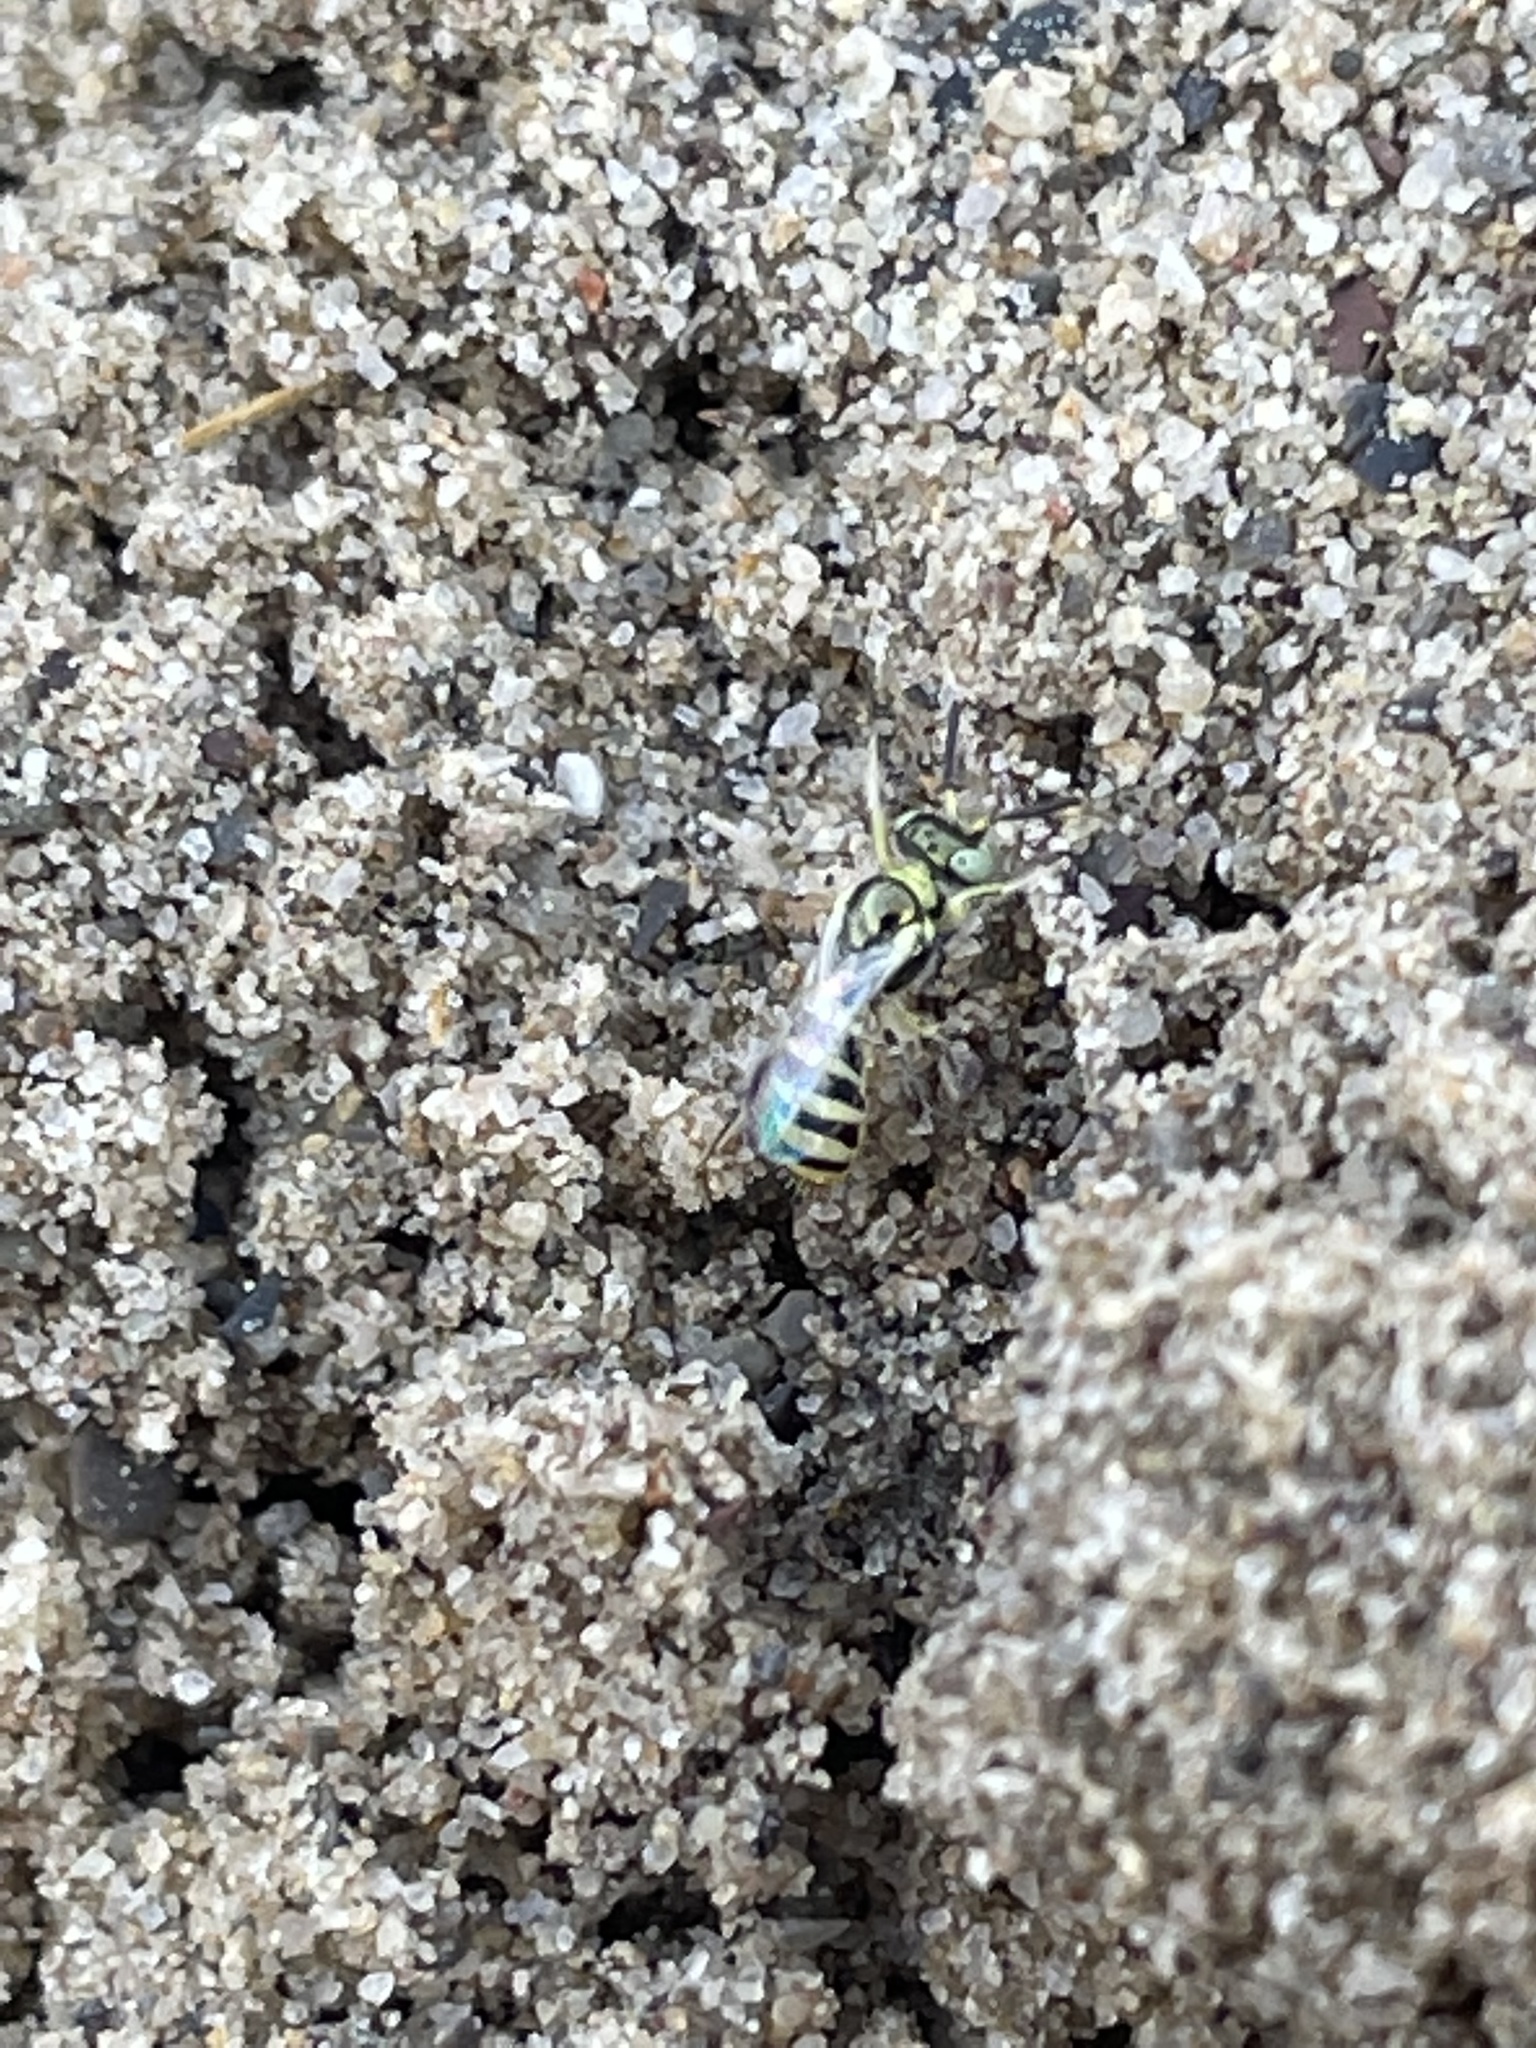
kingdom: Animalia
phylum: Arthropoda
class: Insecta
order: Hymenoptera
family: Andrenidae
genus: Perdita
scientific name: Perdita
